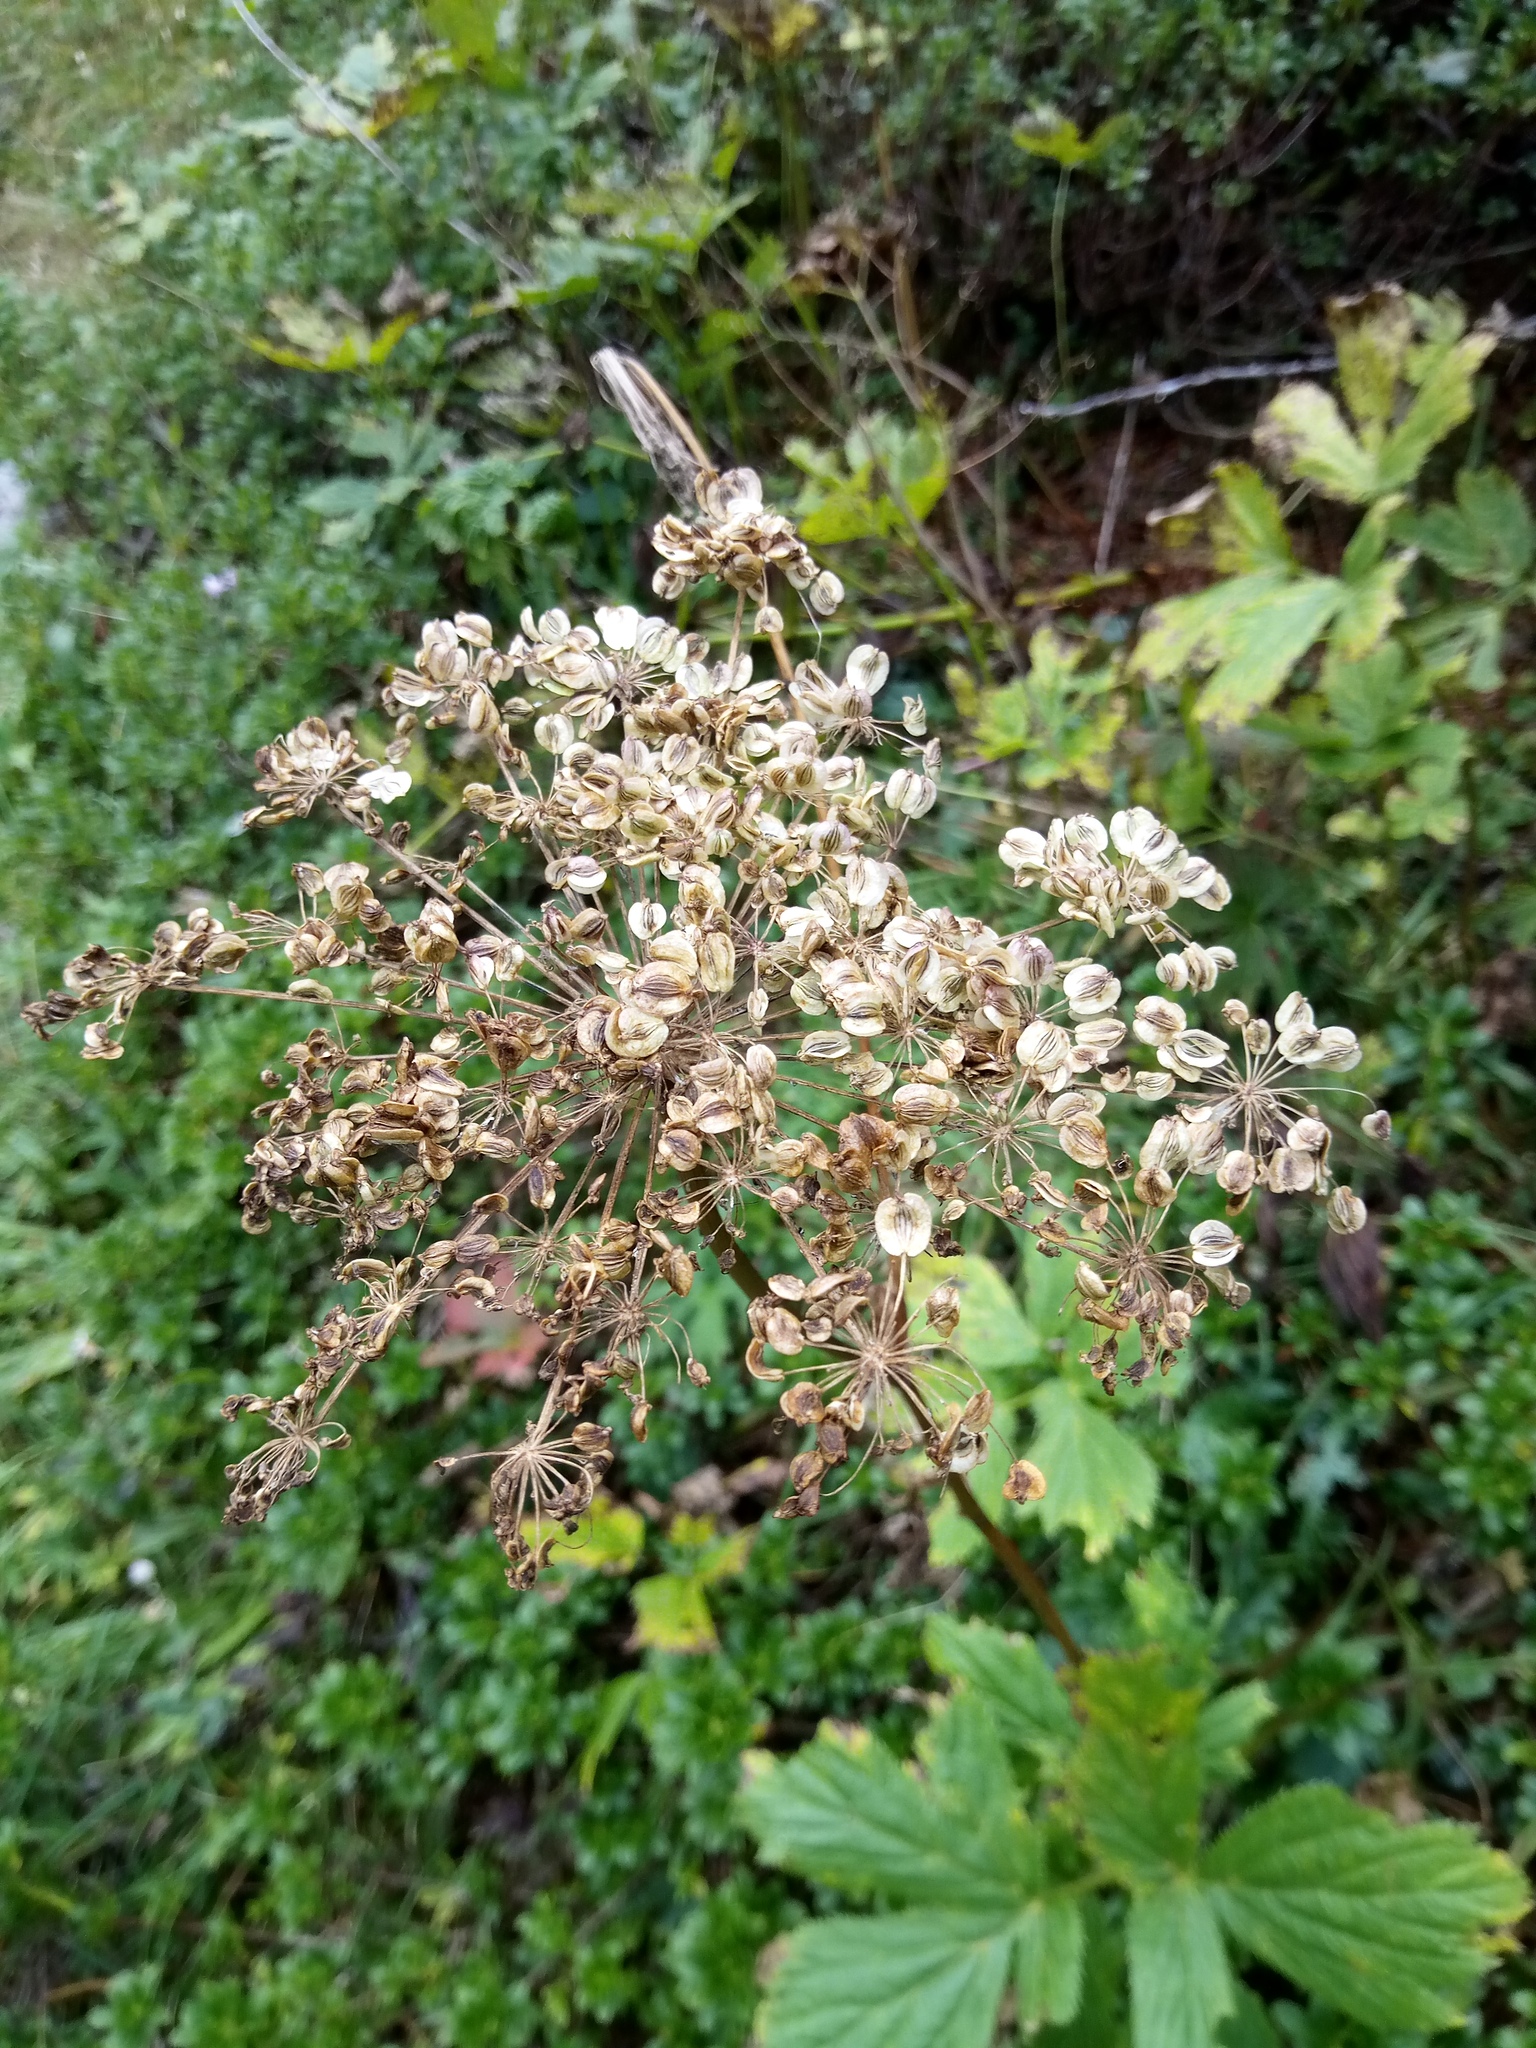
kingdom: Plantae
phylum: Tracheophyta
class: Magnoliopsida
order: Apiales
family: Apiaceae
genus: Imperatoria
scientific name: Imperatoria ostruthium
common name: Masterwort
